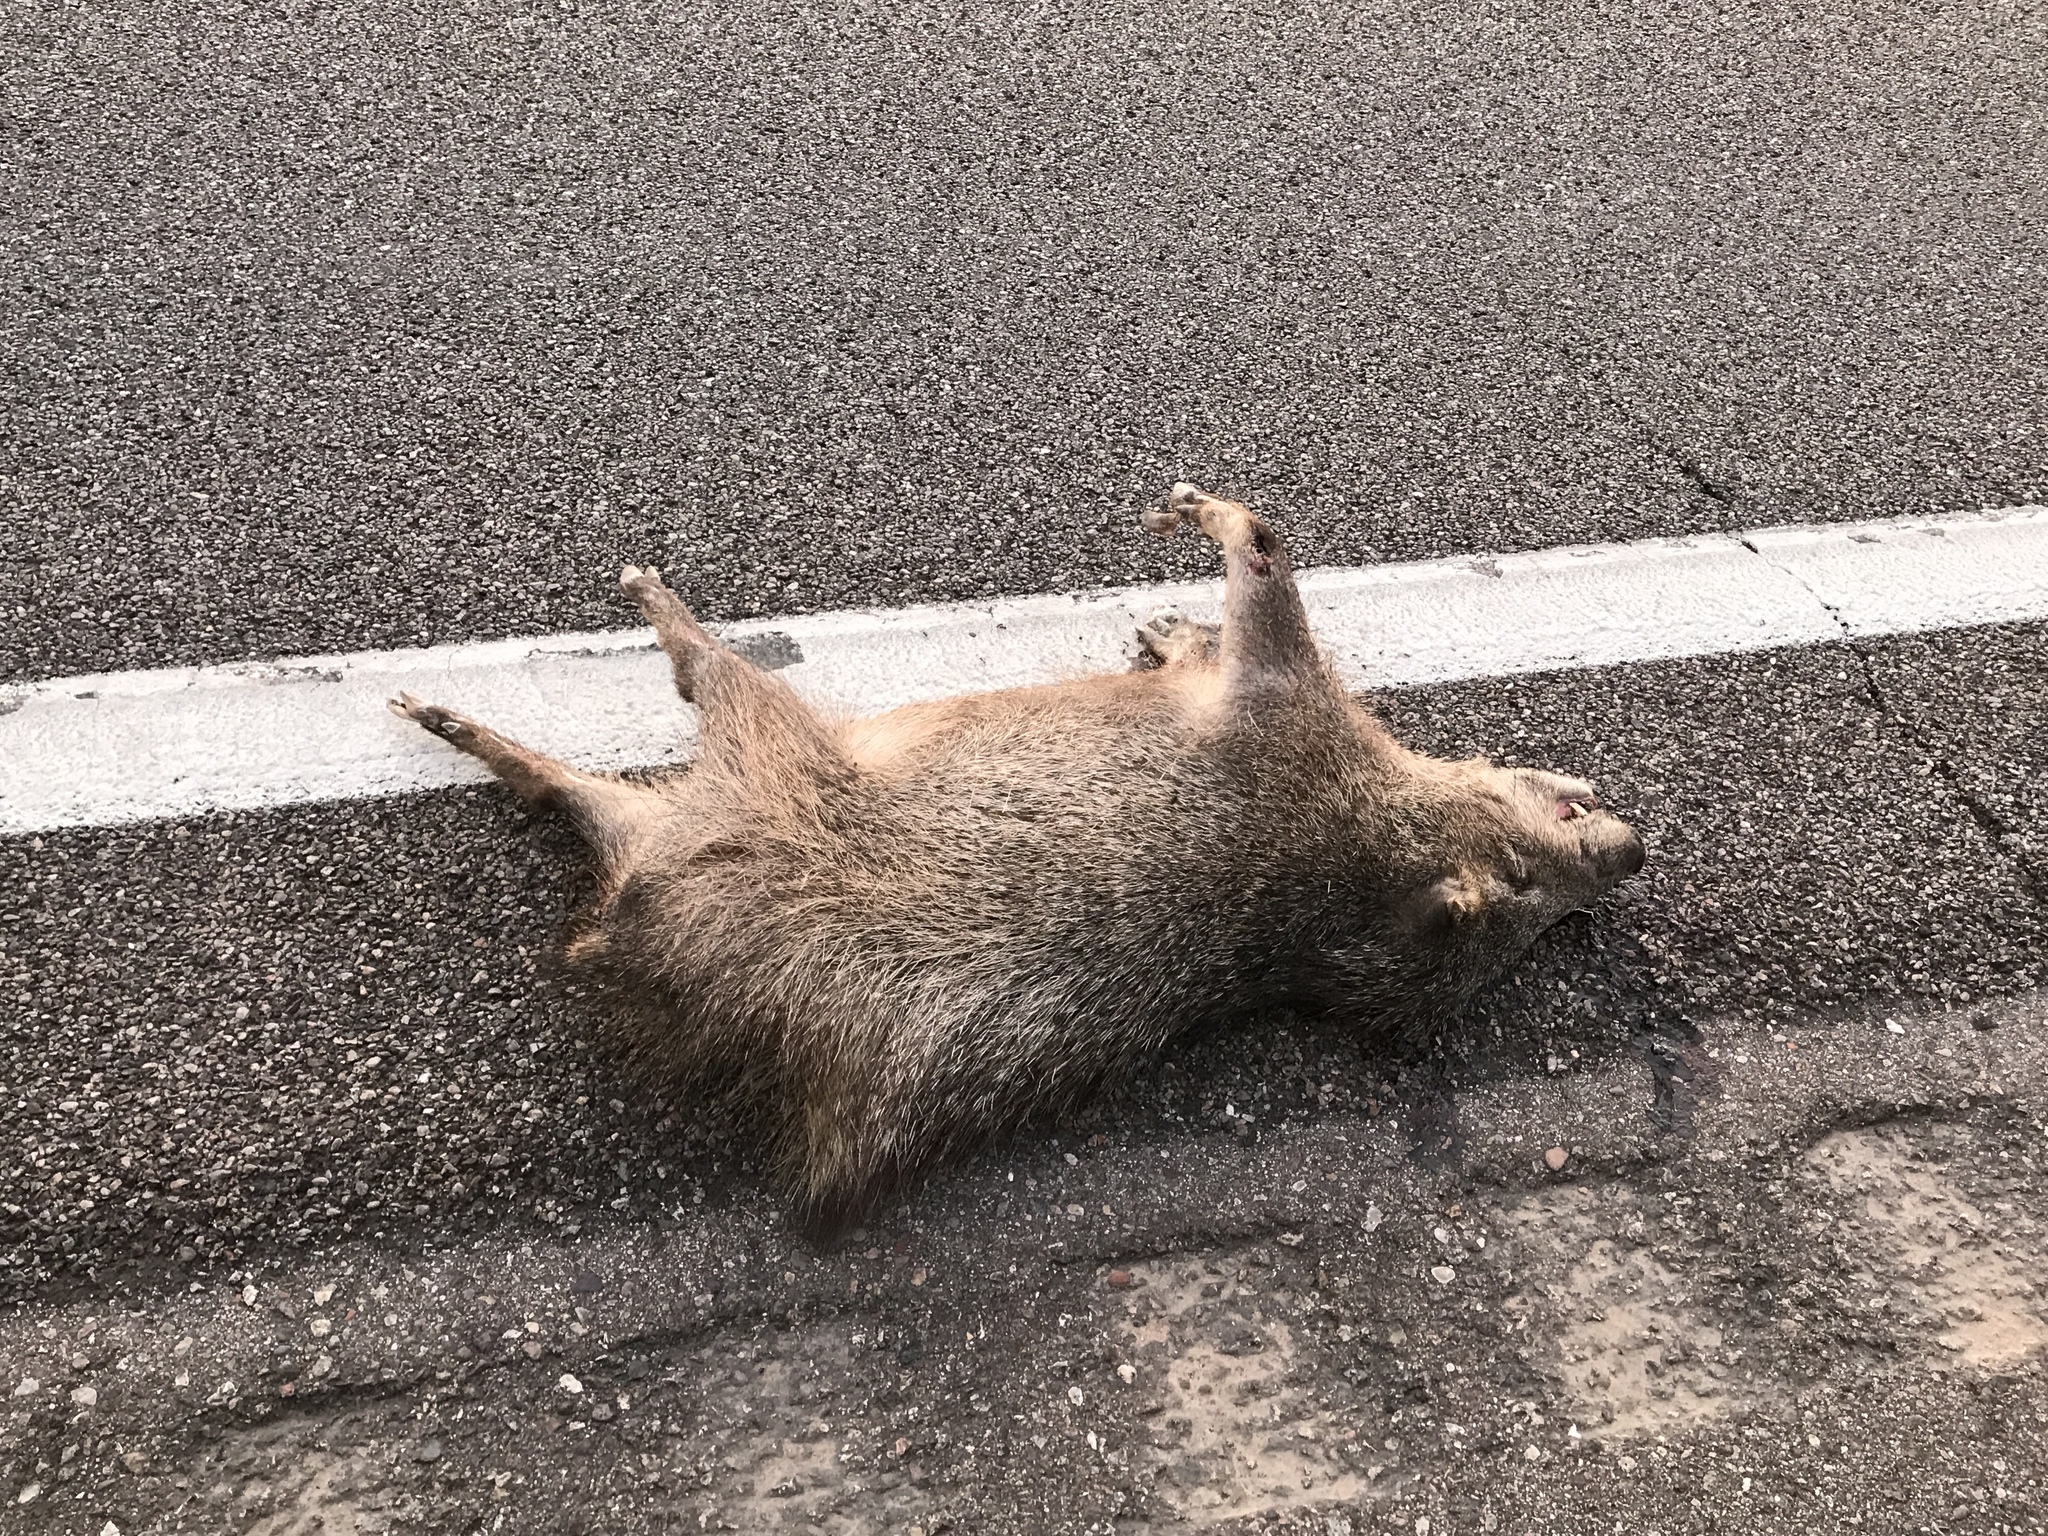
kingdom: Animalia
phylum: Chordata
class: Mammalia
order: Artiodactyla
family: Tayassuidae
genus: Pecari
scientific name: Pecari tajacu
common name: Collared peccary
